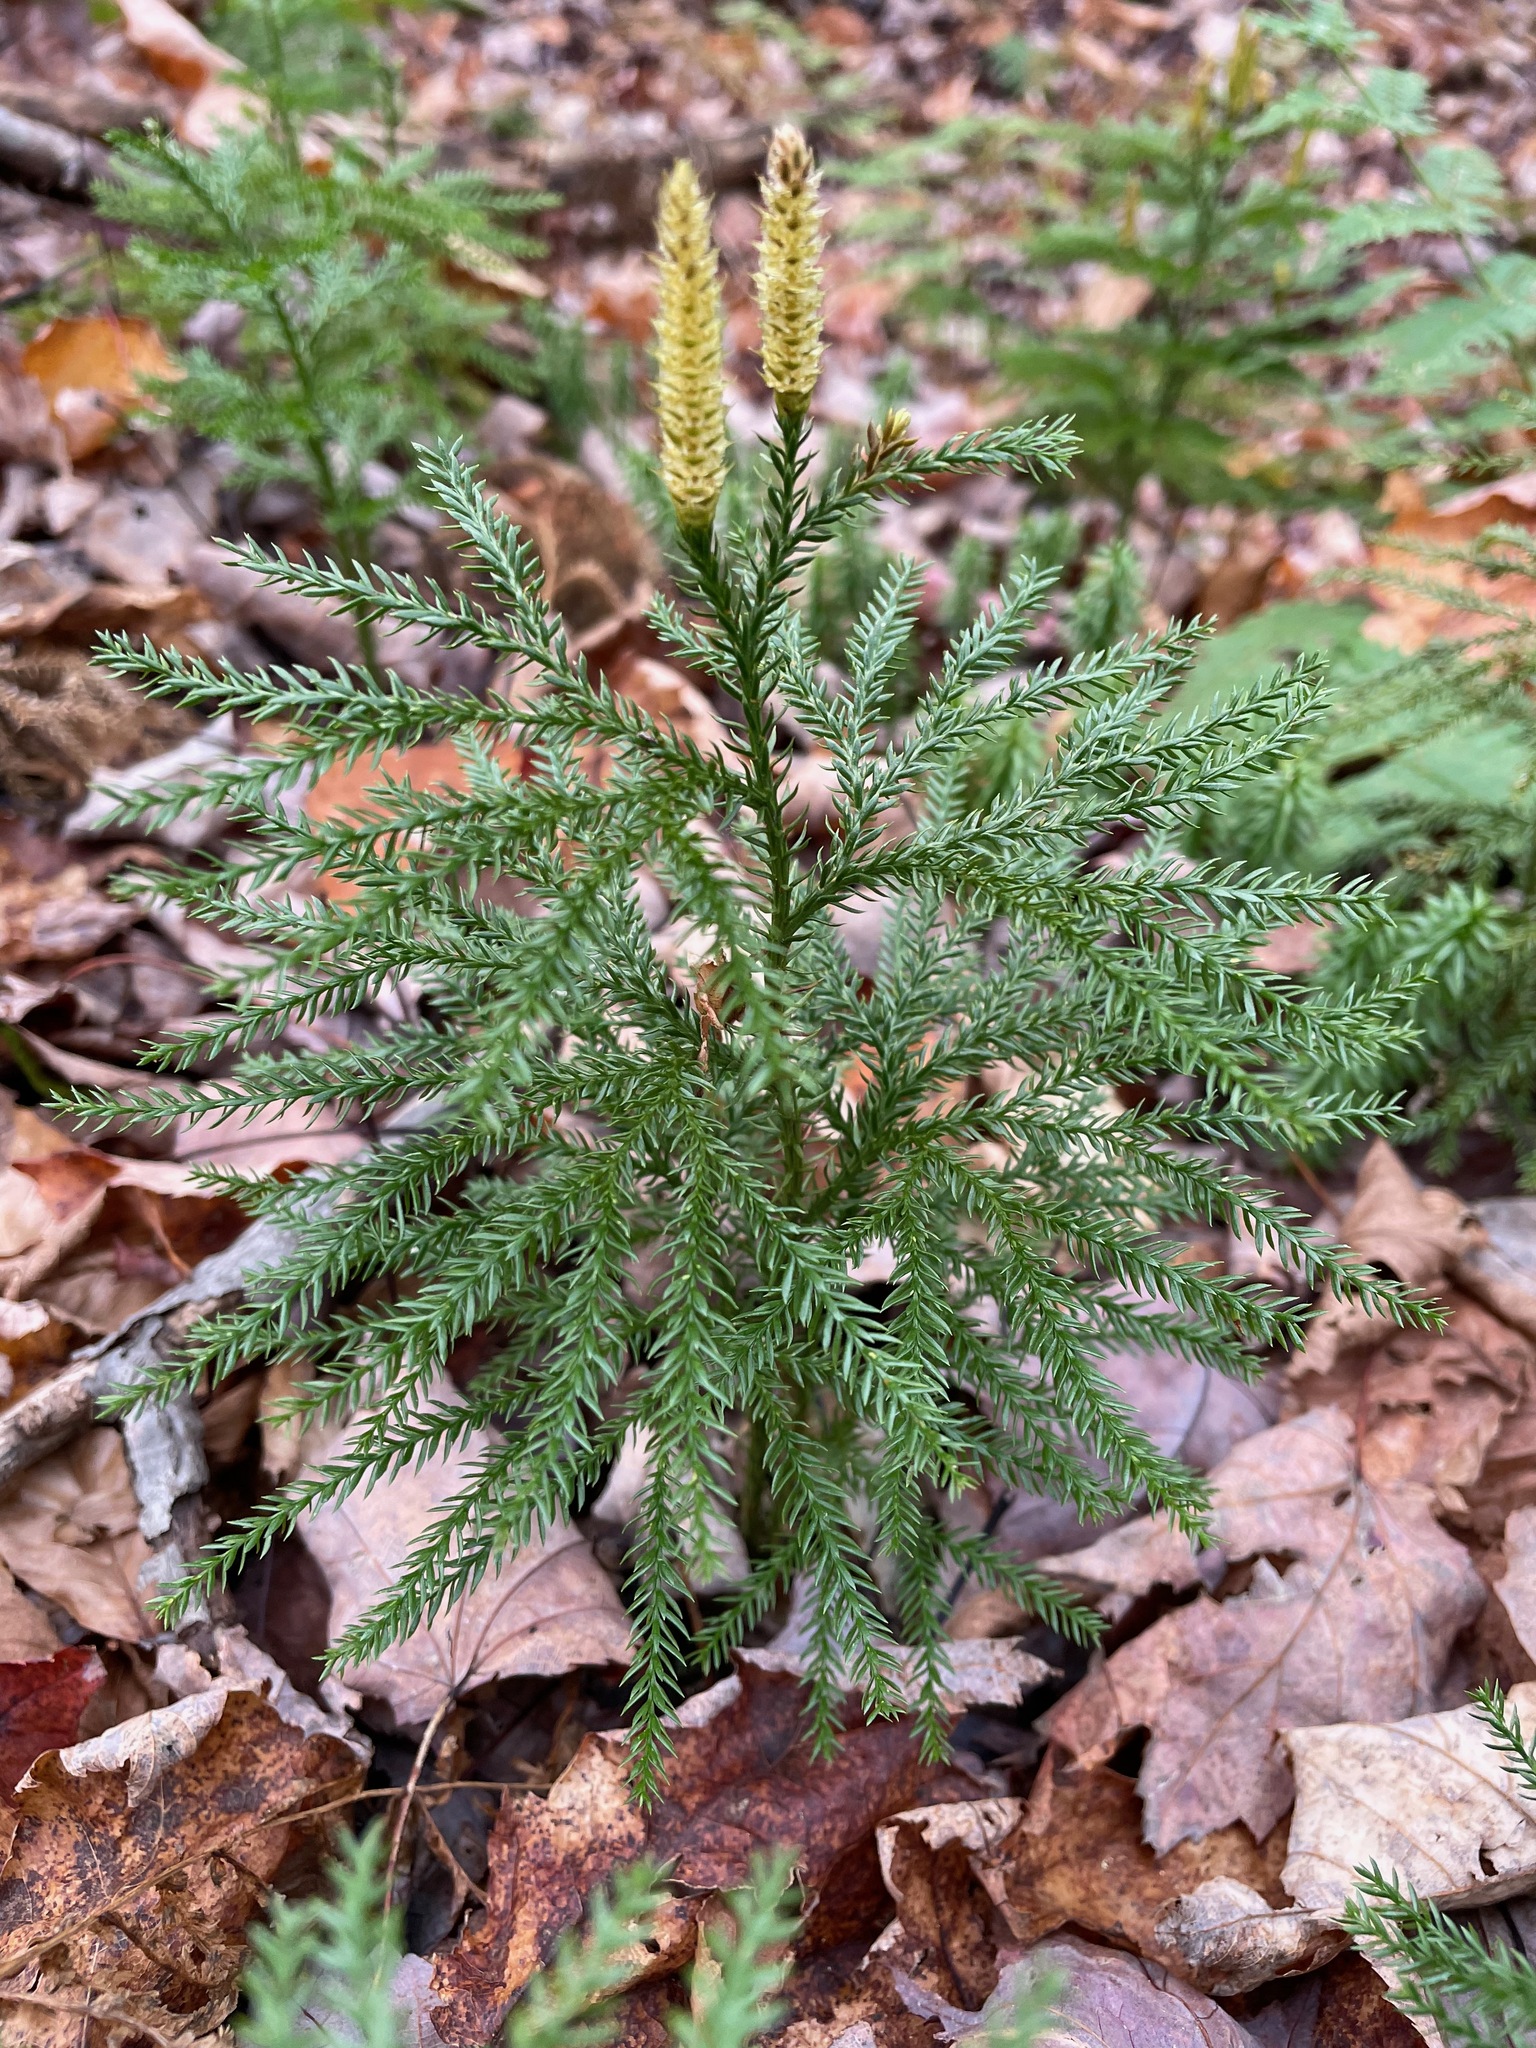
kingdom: Plantae
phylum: Tracheophyta
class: Lycopodiopsida
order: Lycopodiales
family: Lycopodiaceae
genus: Dendrolycopodium
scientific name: Dendrolycopodium dendroideum
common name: Northern tree-clubmoss
